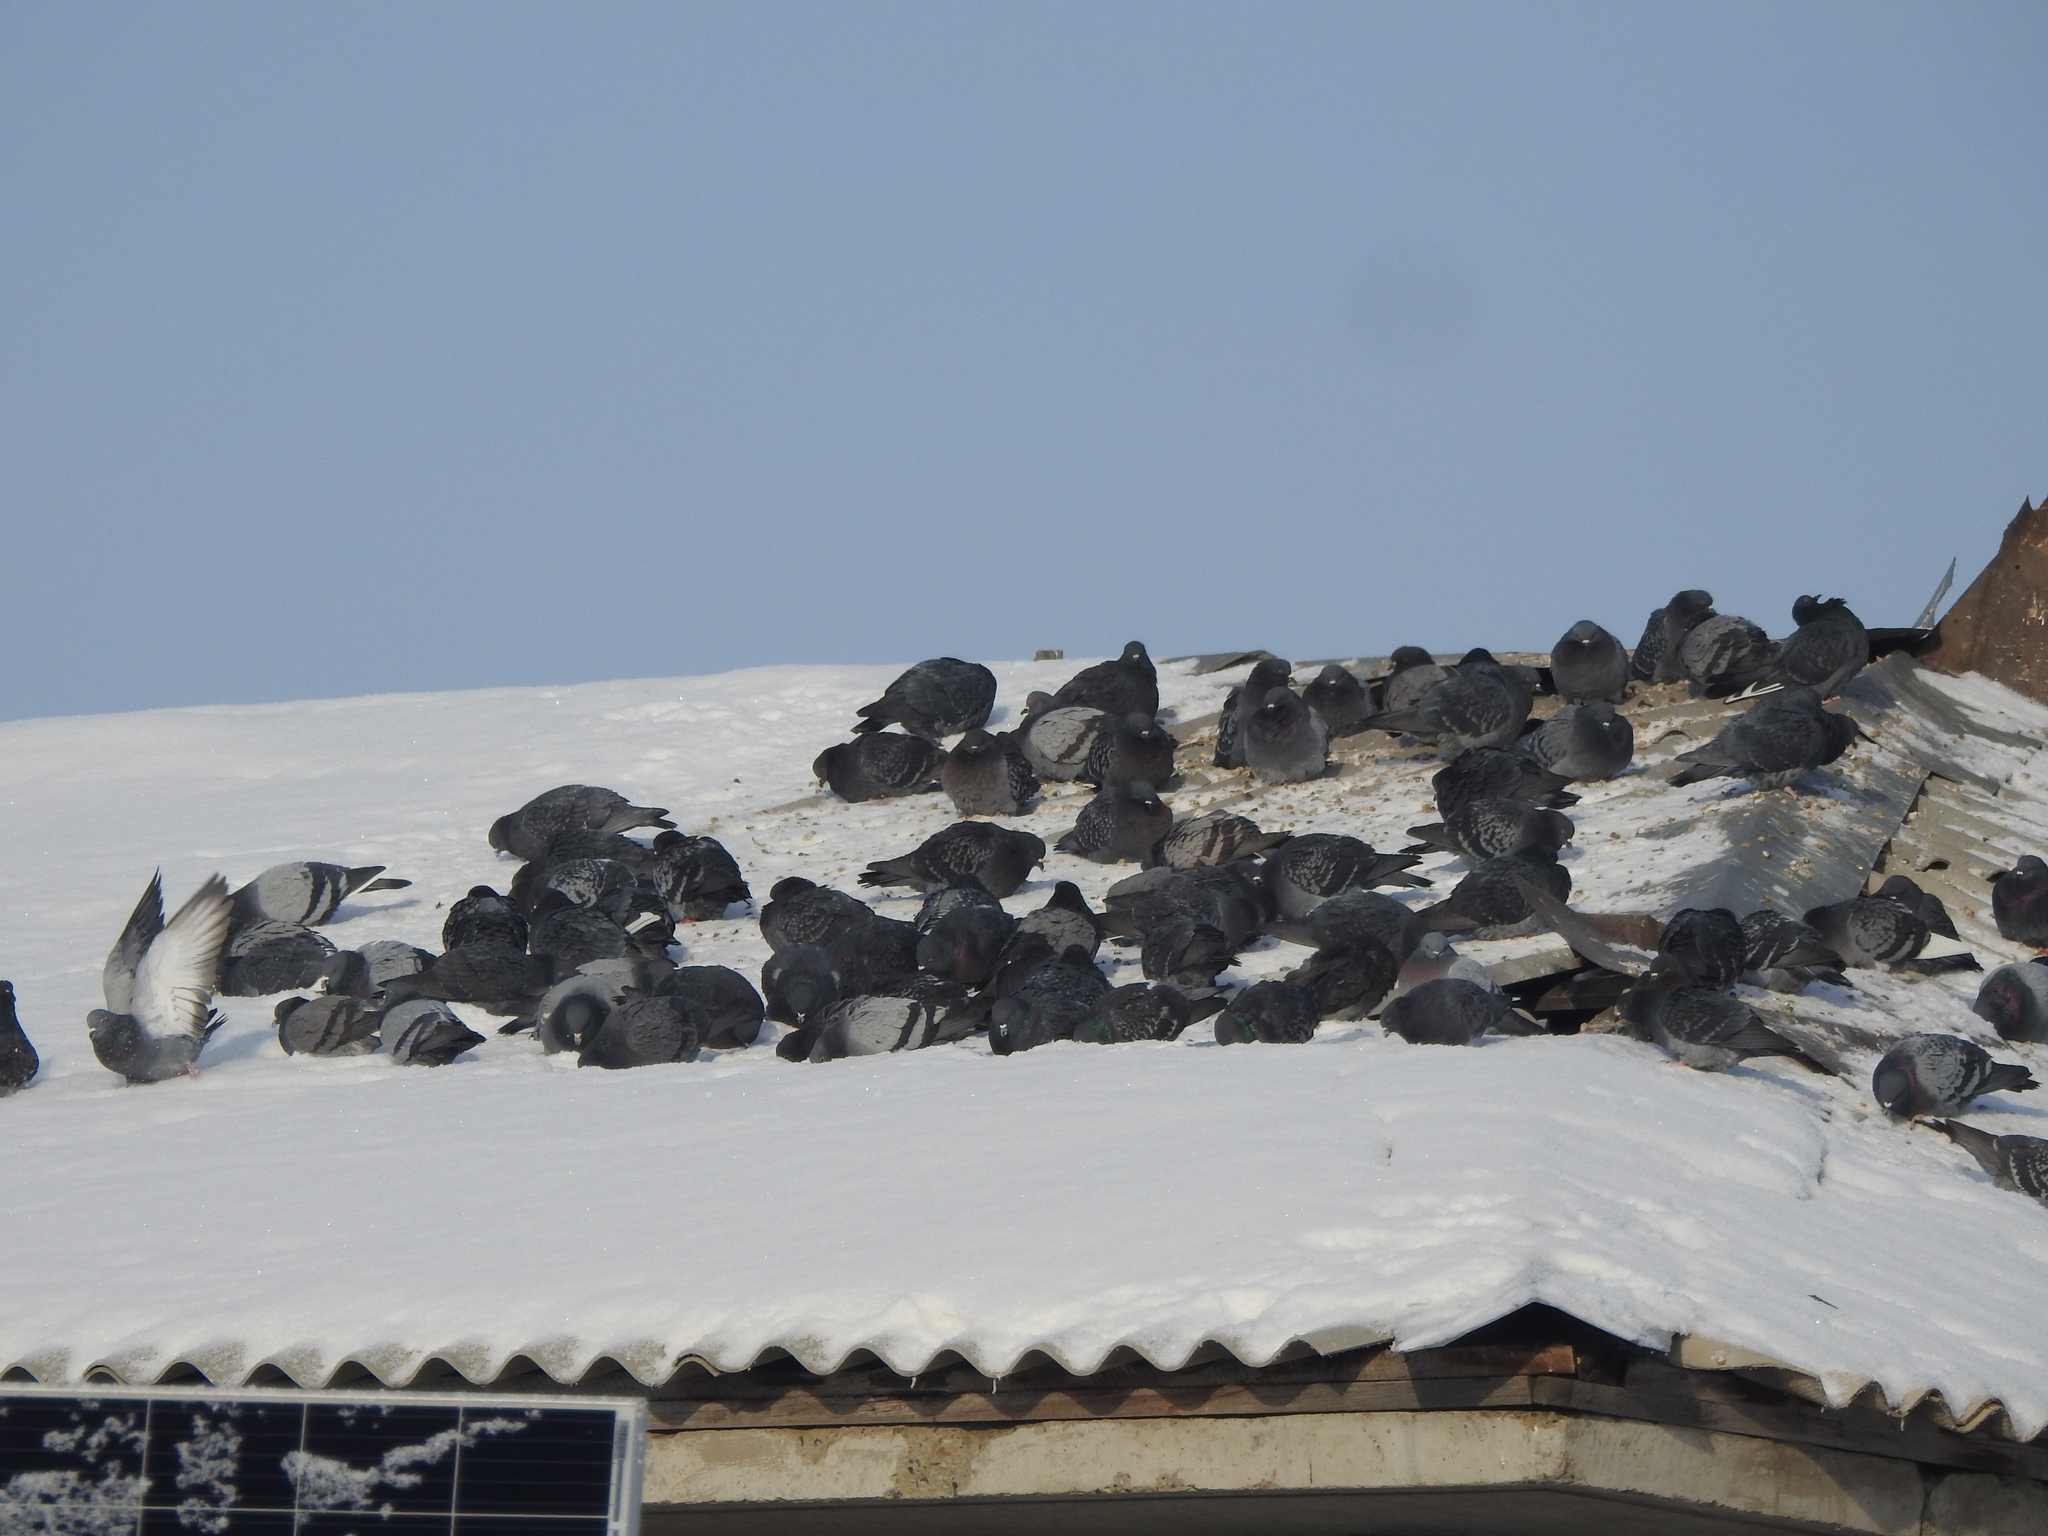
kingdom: Animalia
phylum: Chordata
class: Aves
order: Columbiformes
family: Columbidae
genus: Columba
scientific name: Columba livia
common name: Rock pigeon
